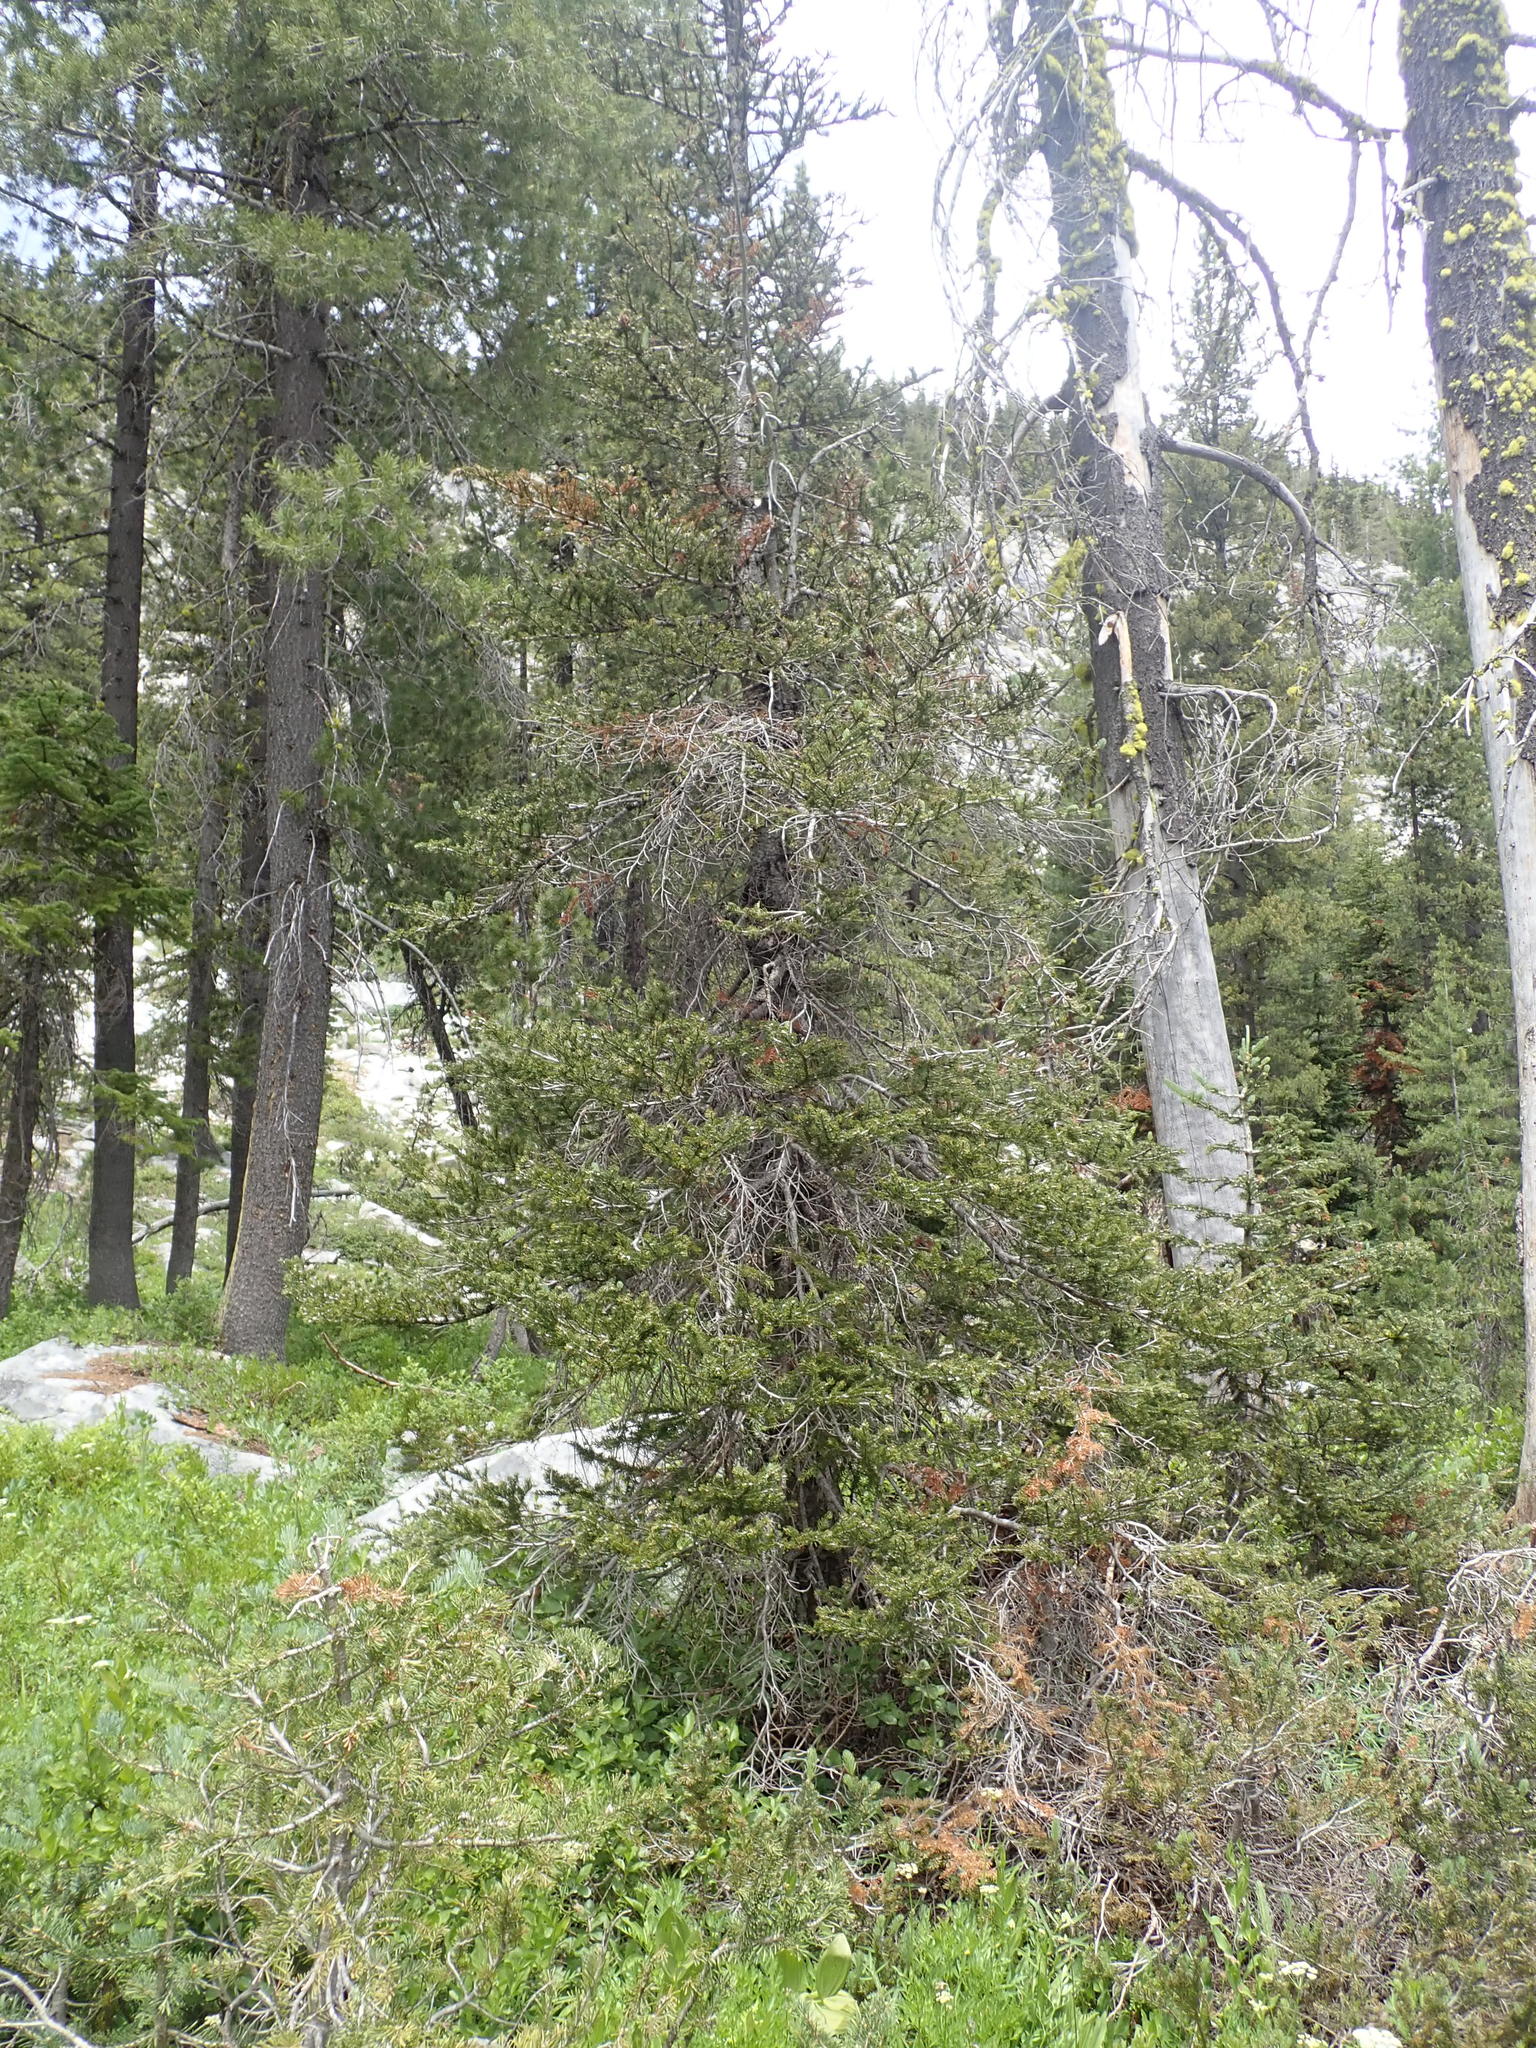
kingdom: Plantae
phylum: Tracheophyta
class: Pinopsida
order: Pinales
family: Pinaceae
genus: Abies
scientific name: Abies lasiocarpa
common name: Subalpine fir
